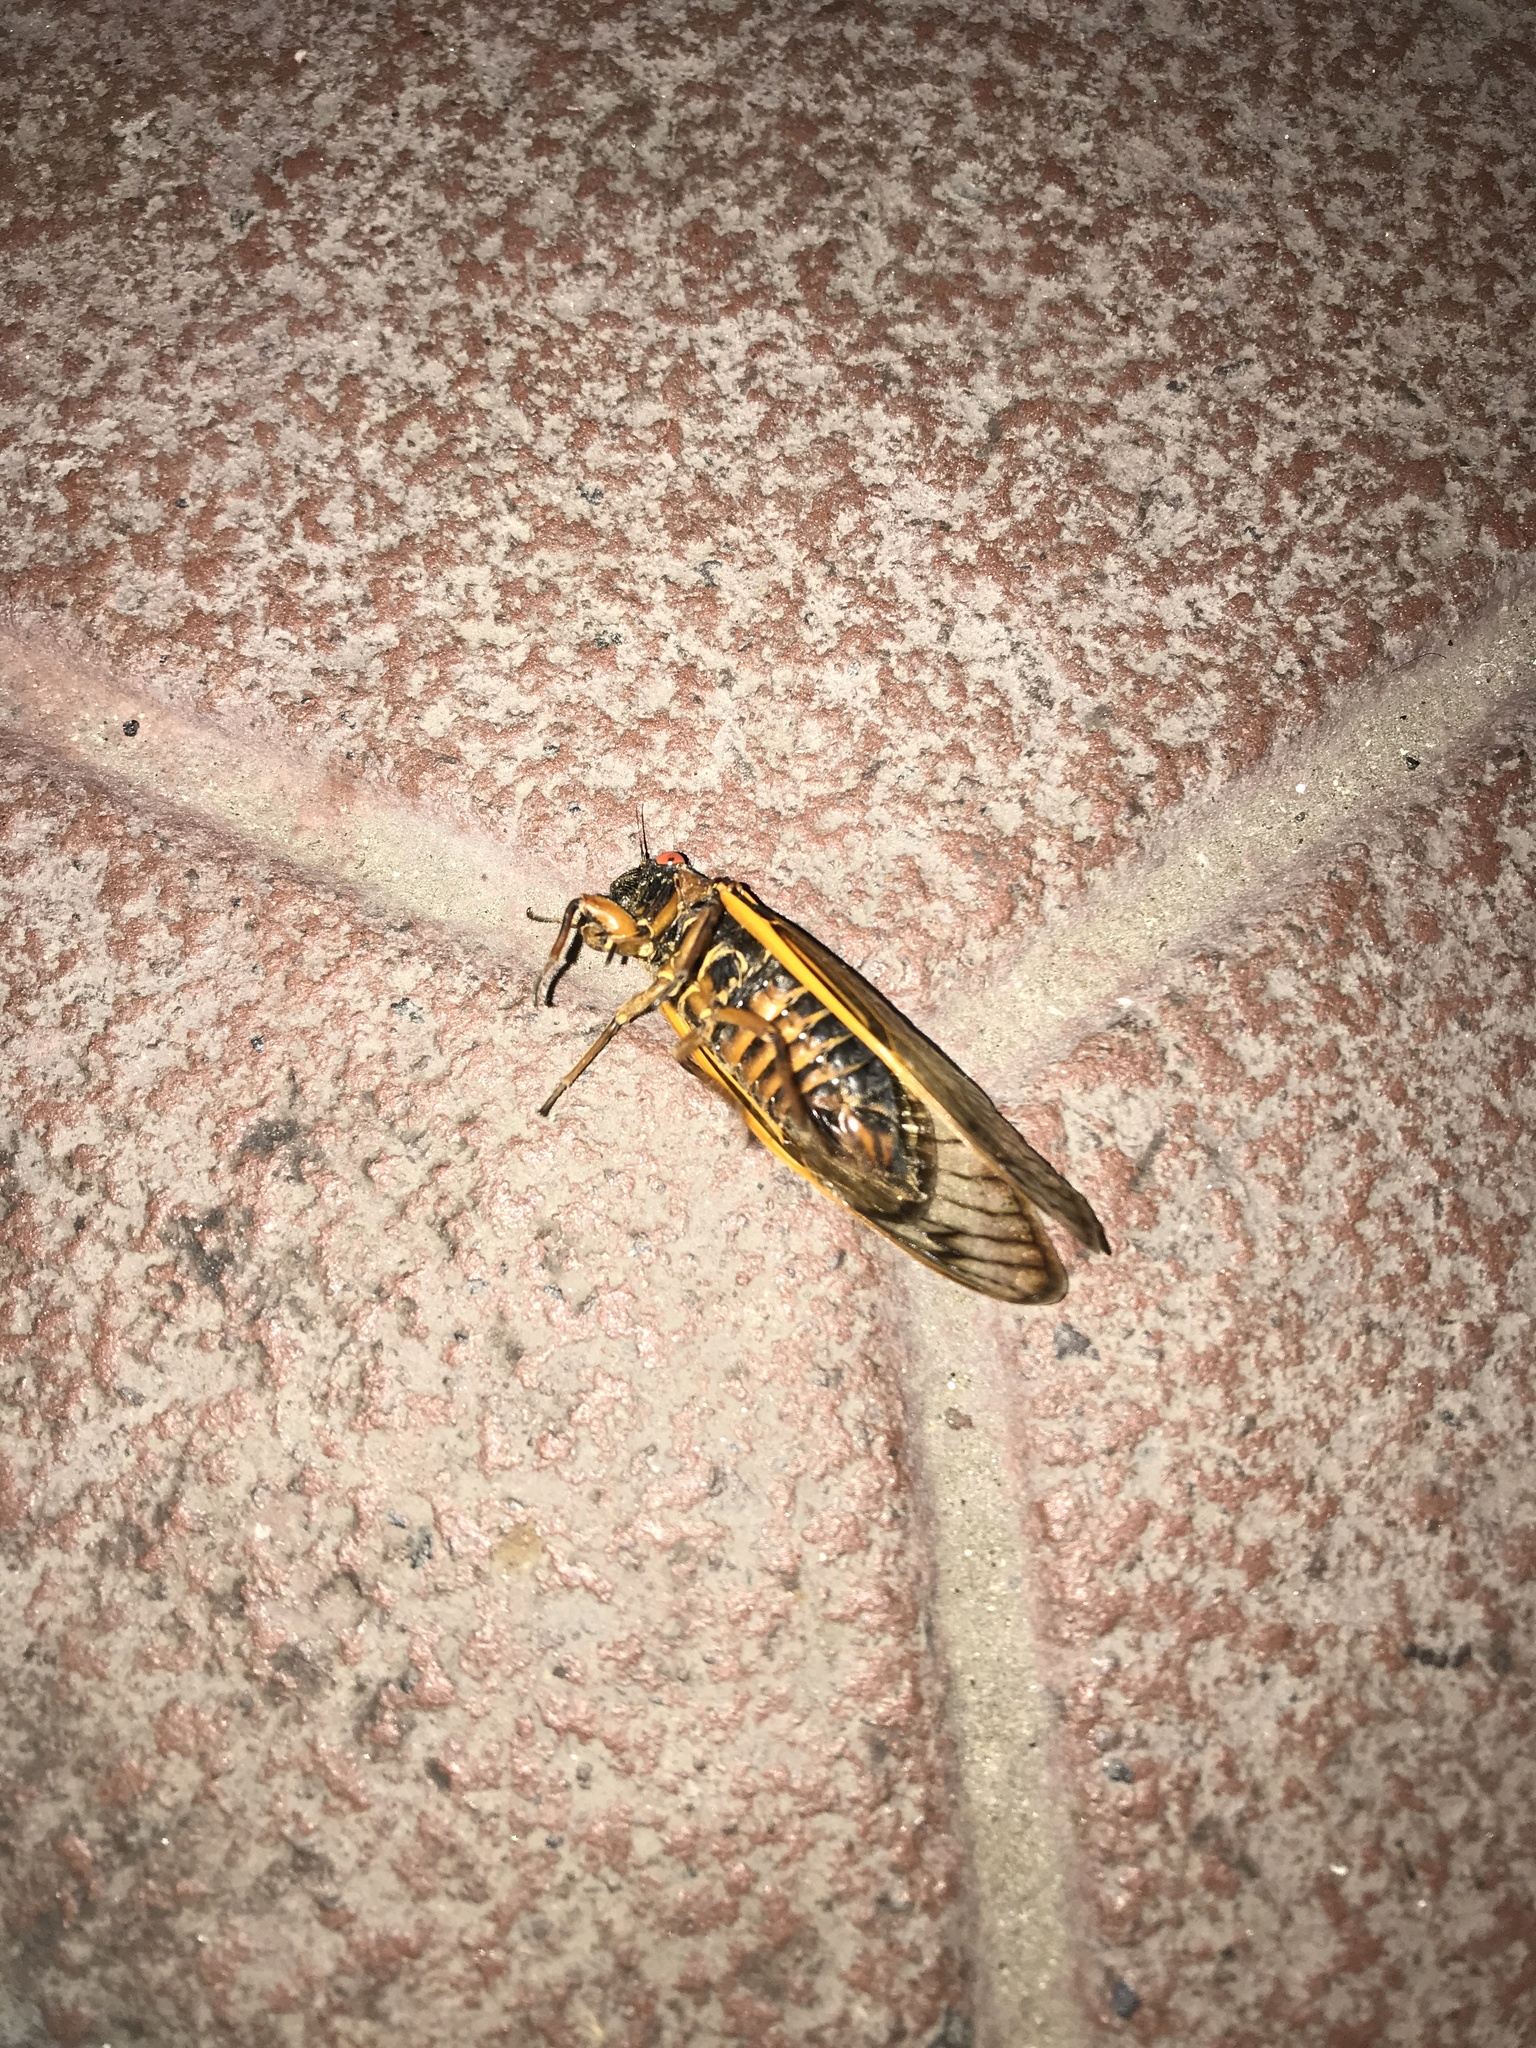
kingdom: Animalia
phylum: Arthropoda
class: Insecta
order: Hemiptera
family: Cicadidae
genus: Magicicada
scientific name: Magicicada septendecim
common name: Periodical cicada
